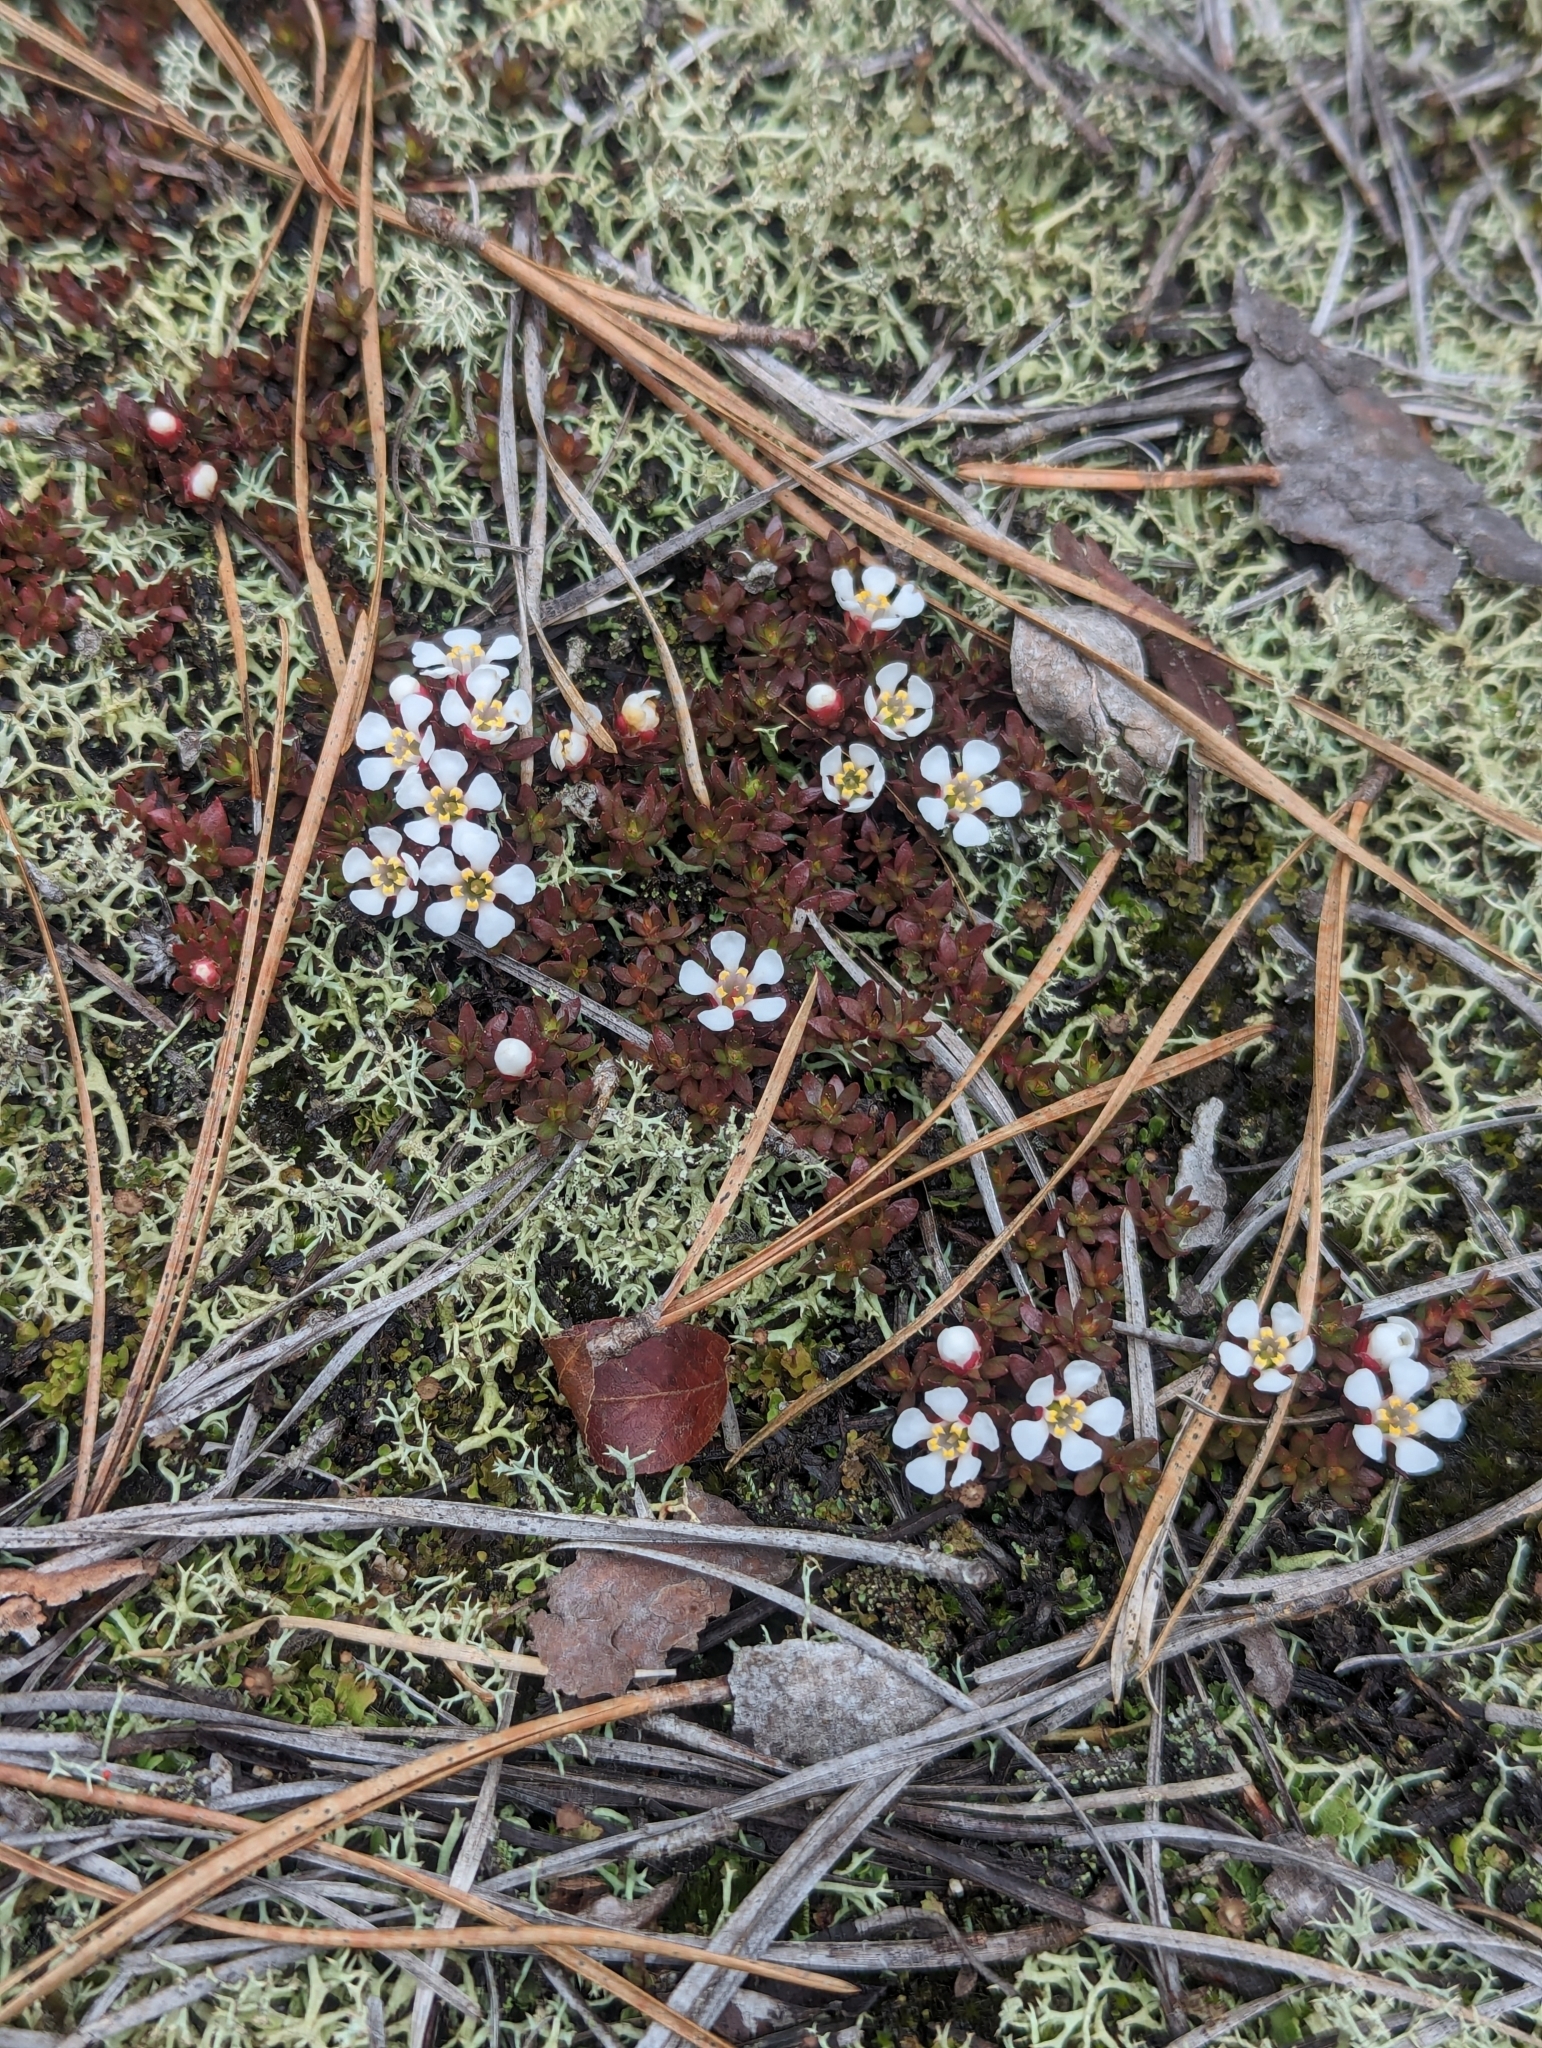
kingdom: Plantae
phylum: Tracheophyta
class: Magnoliopsida
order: Ericales
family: Diapensiaceae
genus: Pyxidanthera
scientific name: Pyxidanthera barbulata
